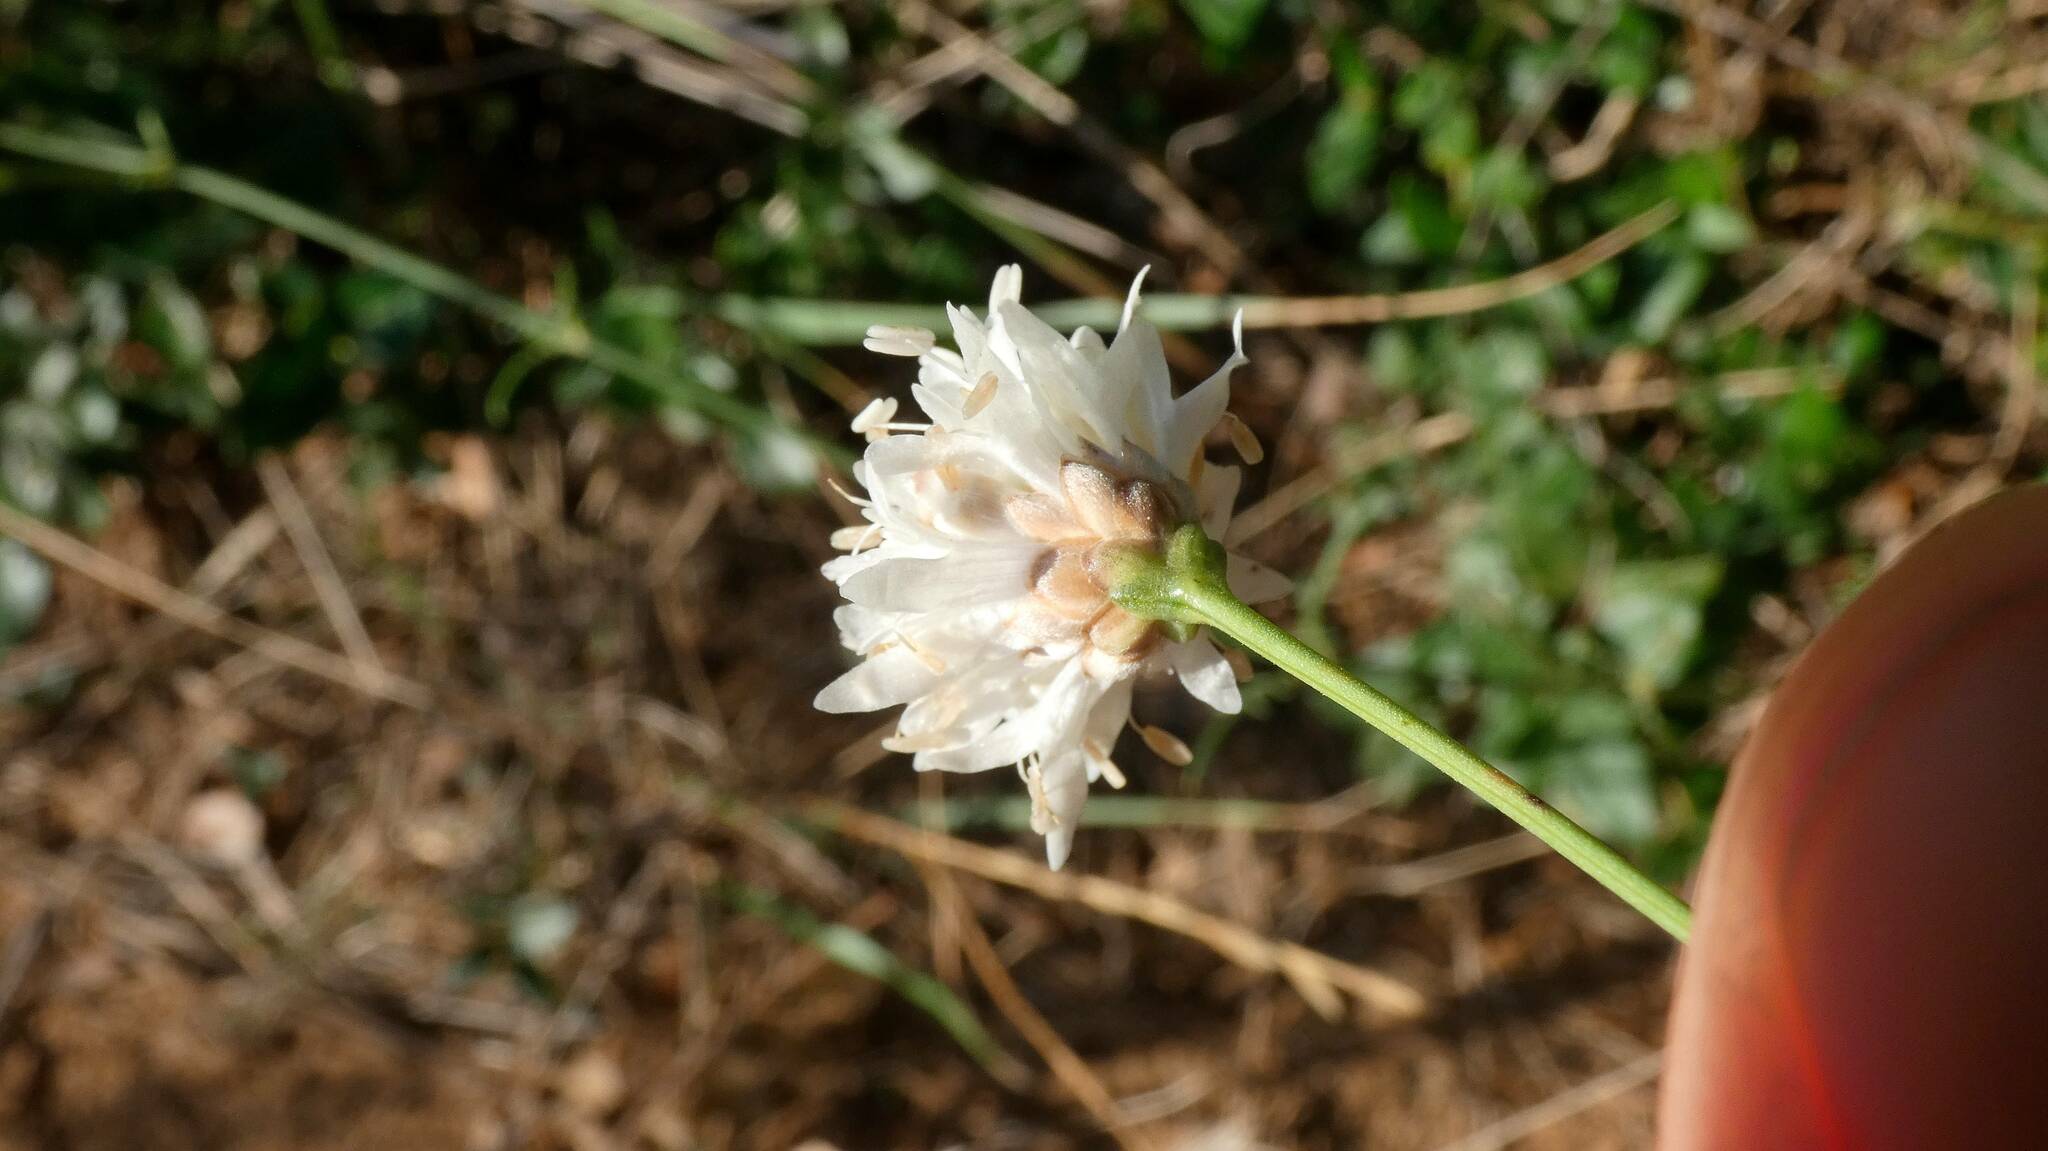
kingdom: Plantae
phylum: Tracheophyta
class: Magnoliopsida
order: Dipsacales
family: Caprifoliaceae
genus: Cephalaria
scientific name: Cephalaria leucantha
